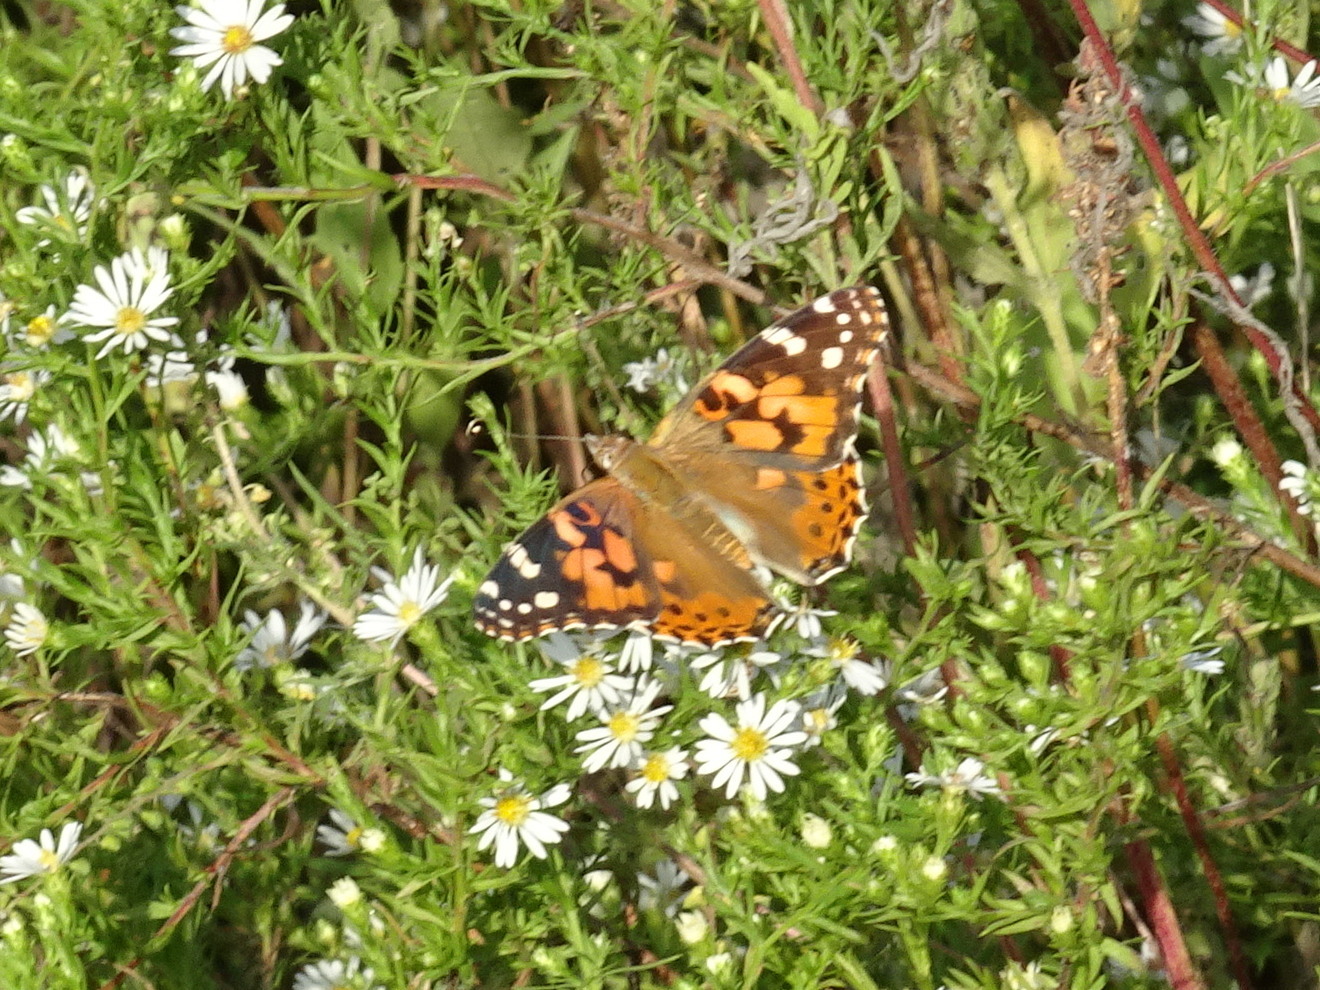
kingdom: Animalia
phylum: Arthropoda
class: Insecta
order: Lepidoptera
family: Nymphalidae
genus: Vanessa
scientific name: Vanessa cardui
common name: Painted lady
